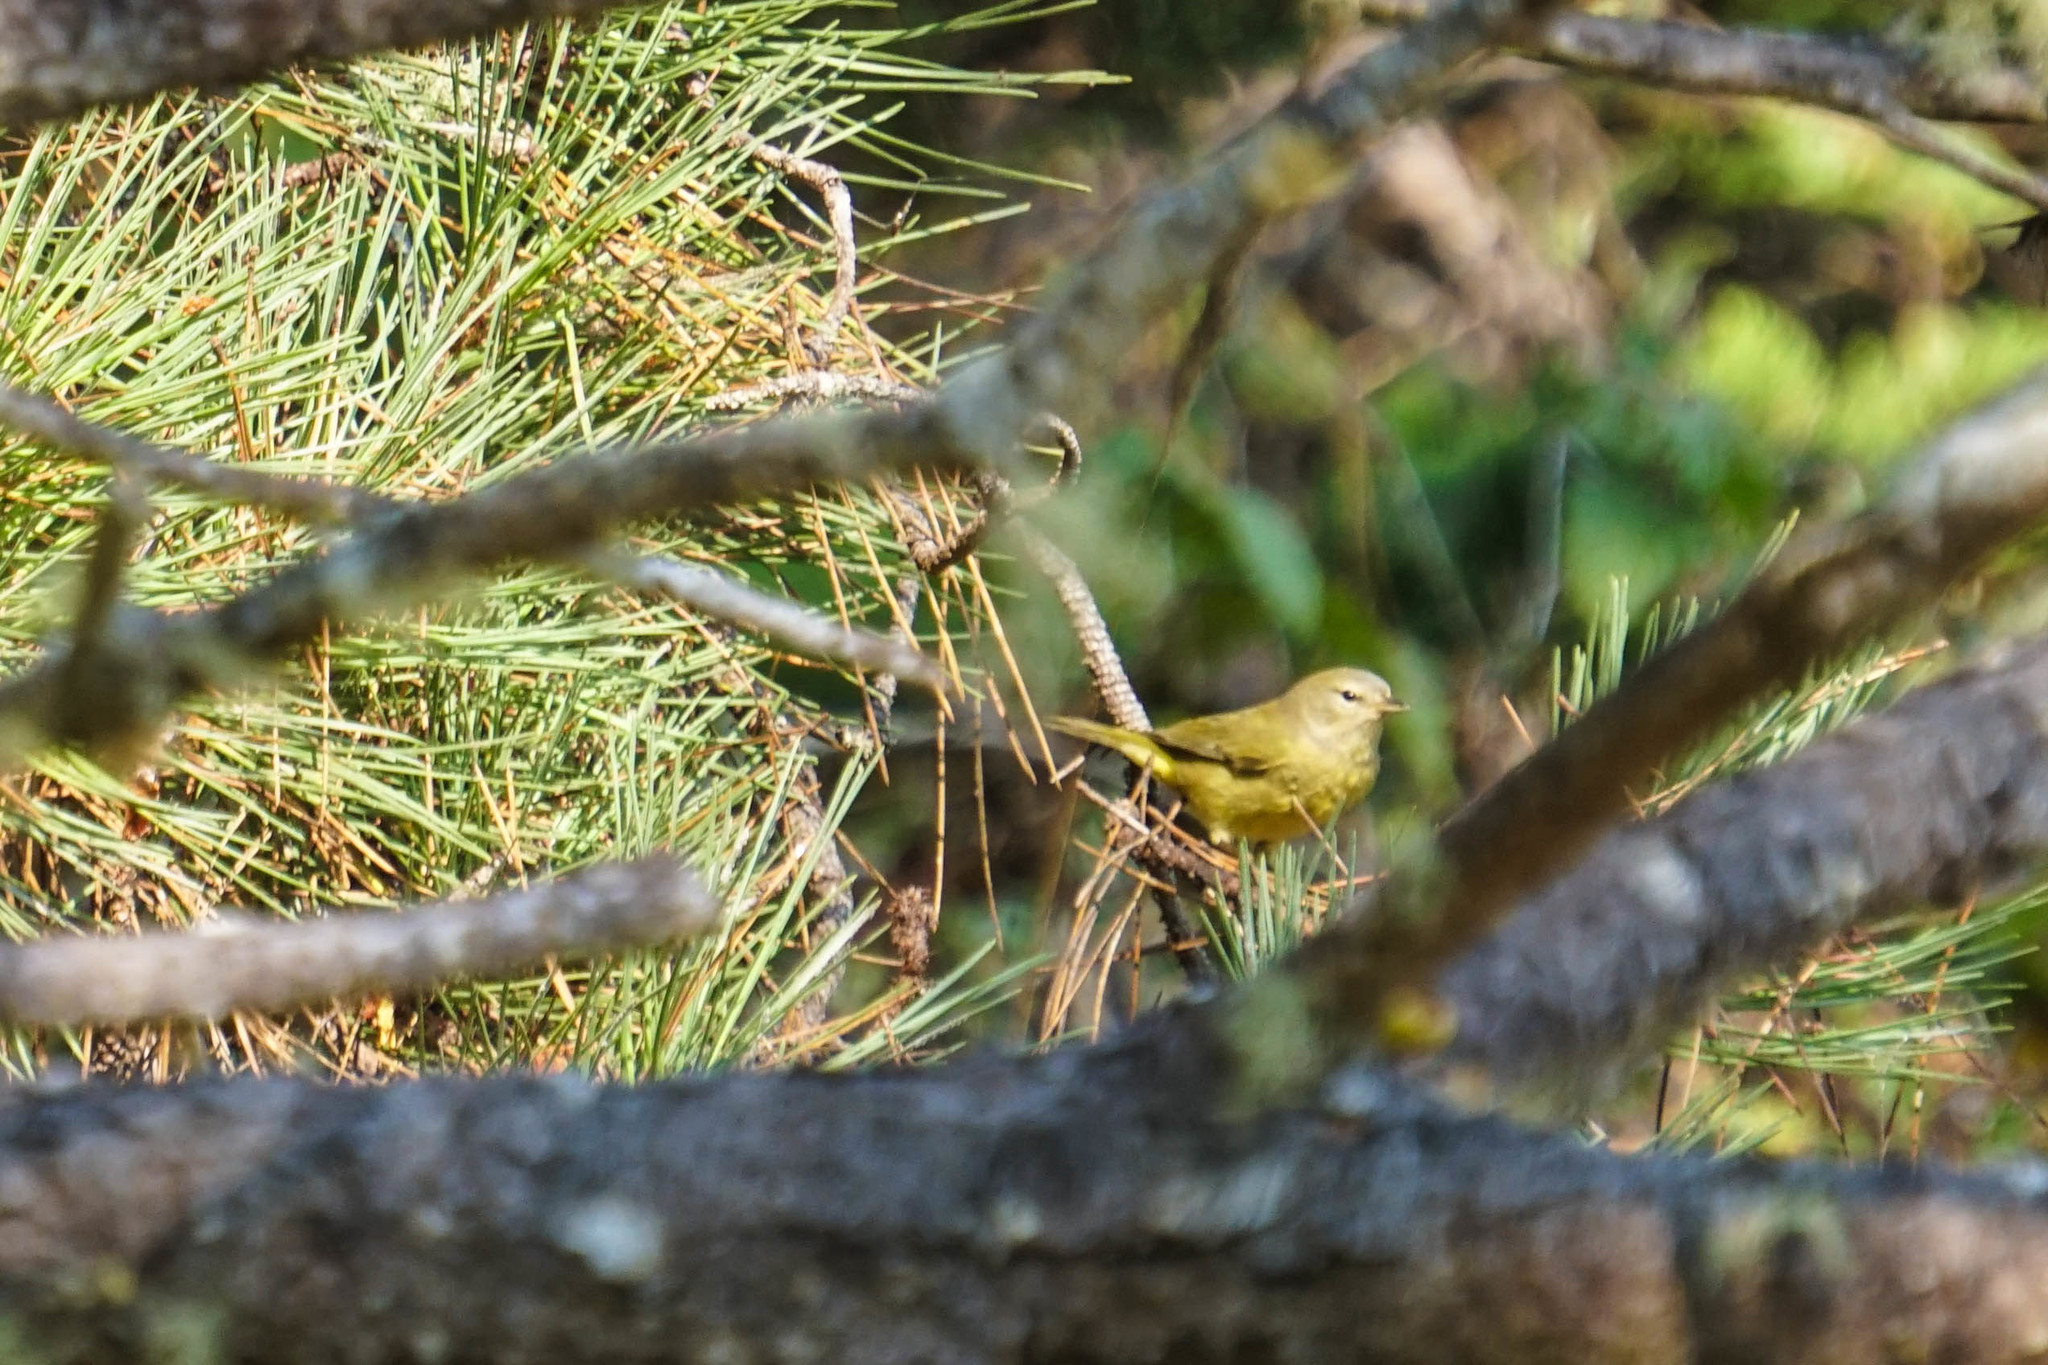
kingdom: Animalia
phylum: Chordata
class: Aves
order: Passeriformes
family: Parulidae
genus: Leiothlypis
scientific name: Leiothlypis celata
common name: Orange-crowned warbler
